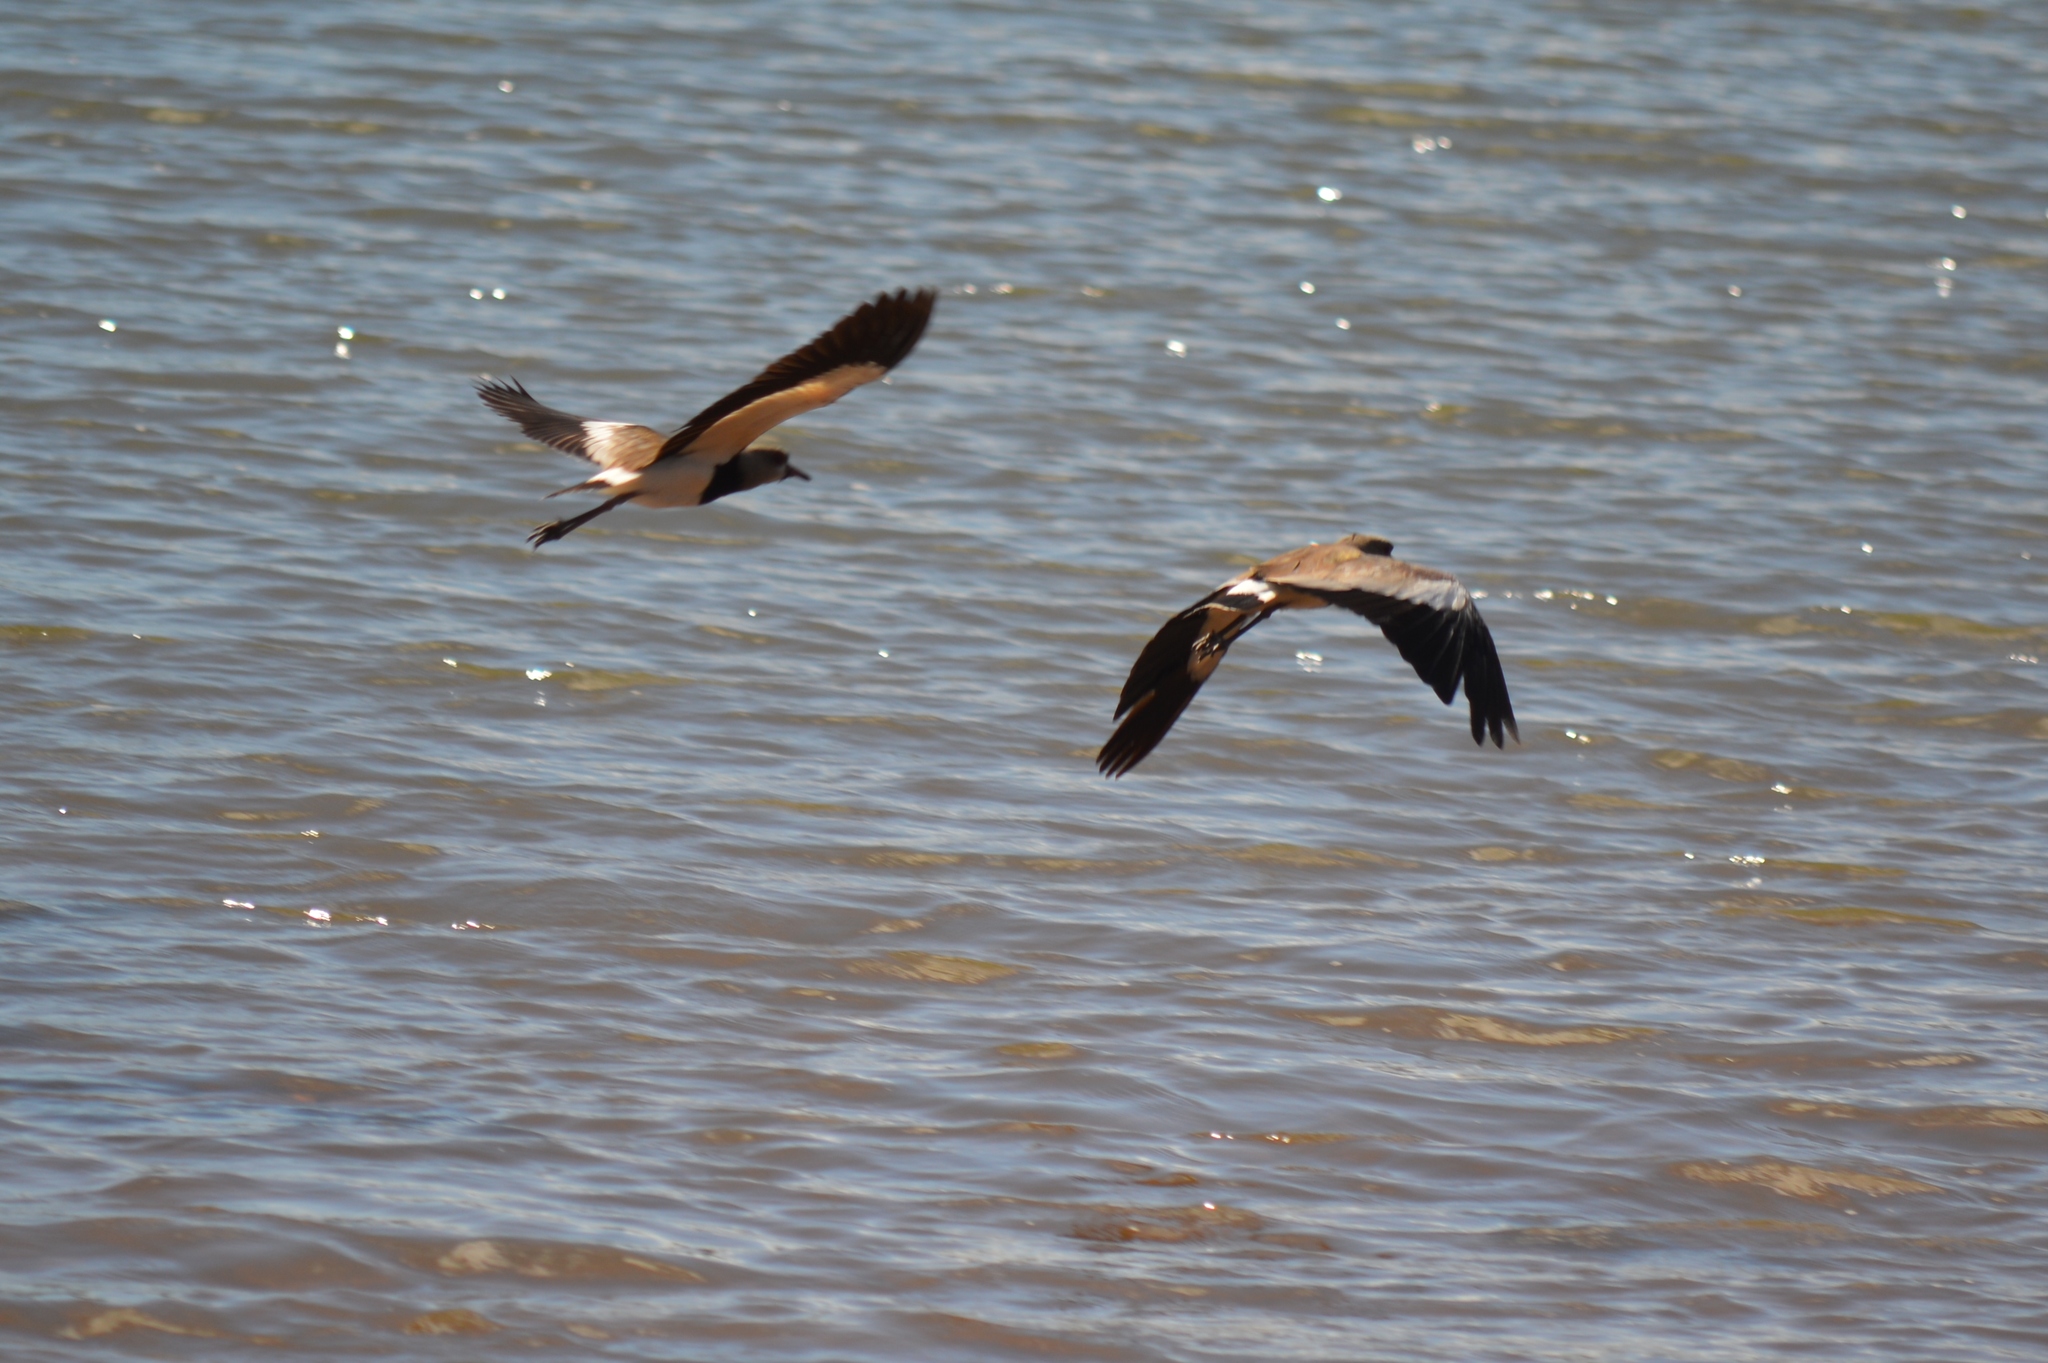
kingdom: Animalia
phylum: Chordata
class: Aves
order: Charadriiformes
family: Charadriidae
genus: Vanellus
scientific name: Vanellus chilensis
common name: Southern lapwing
